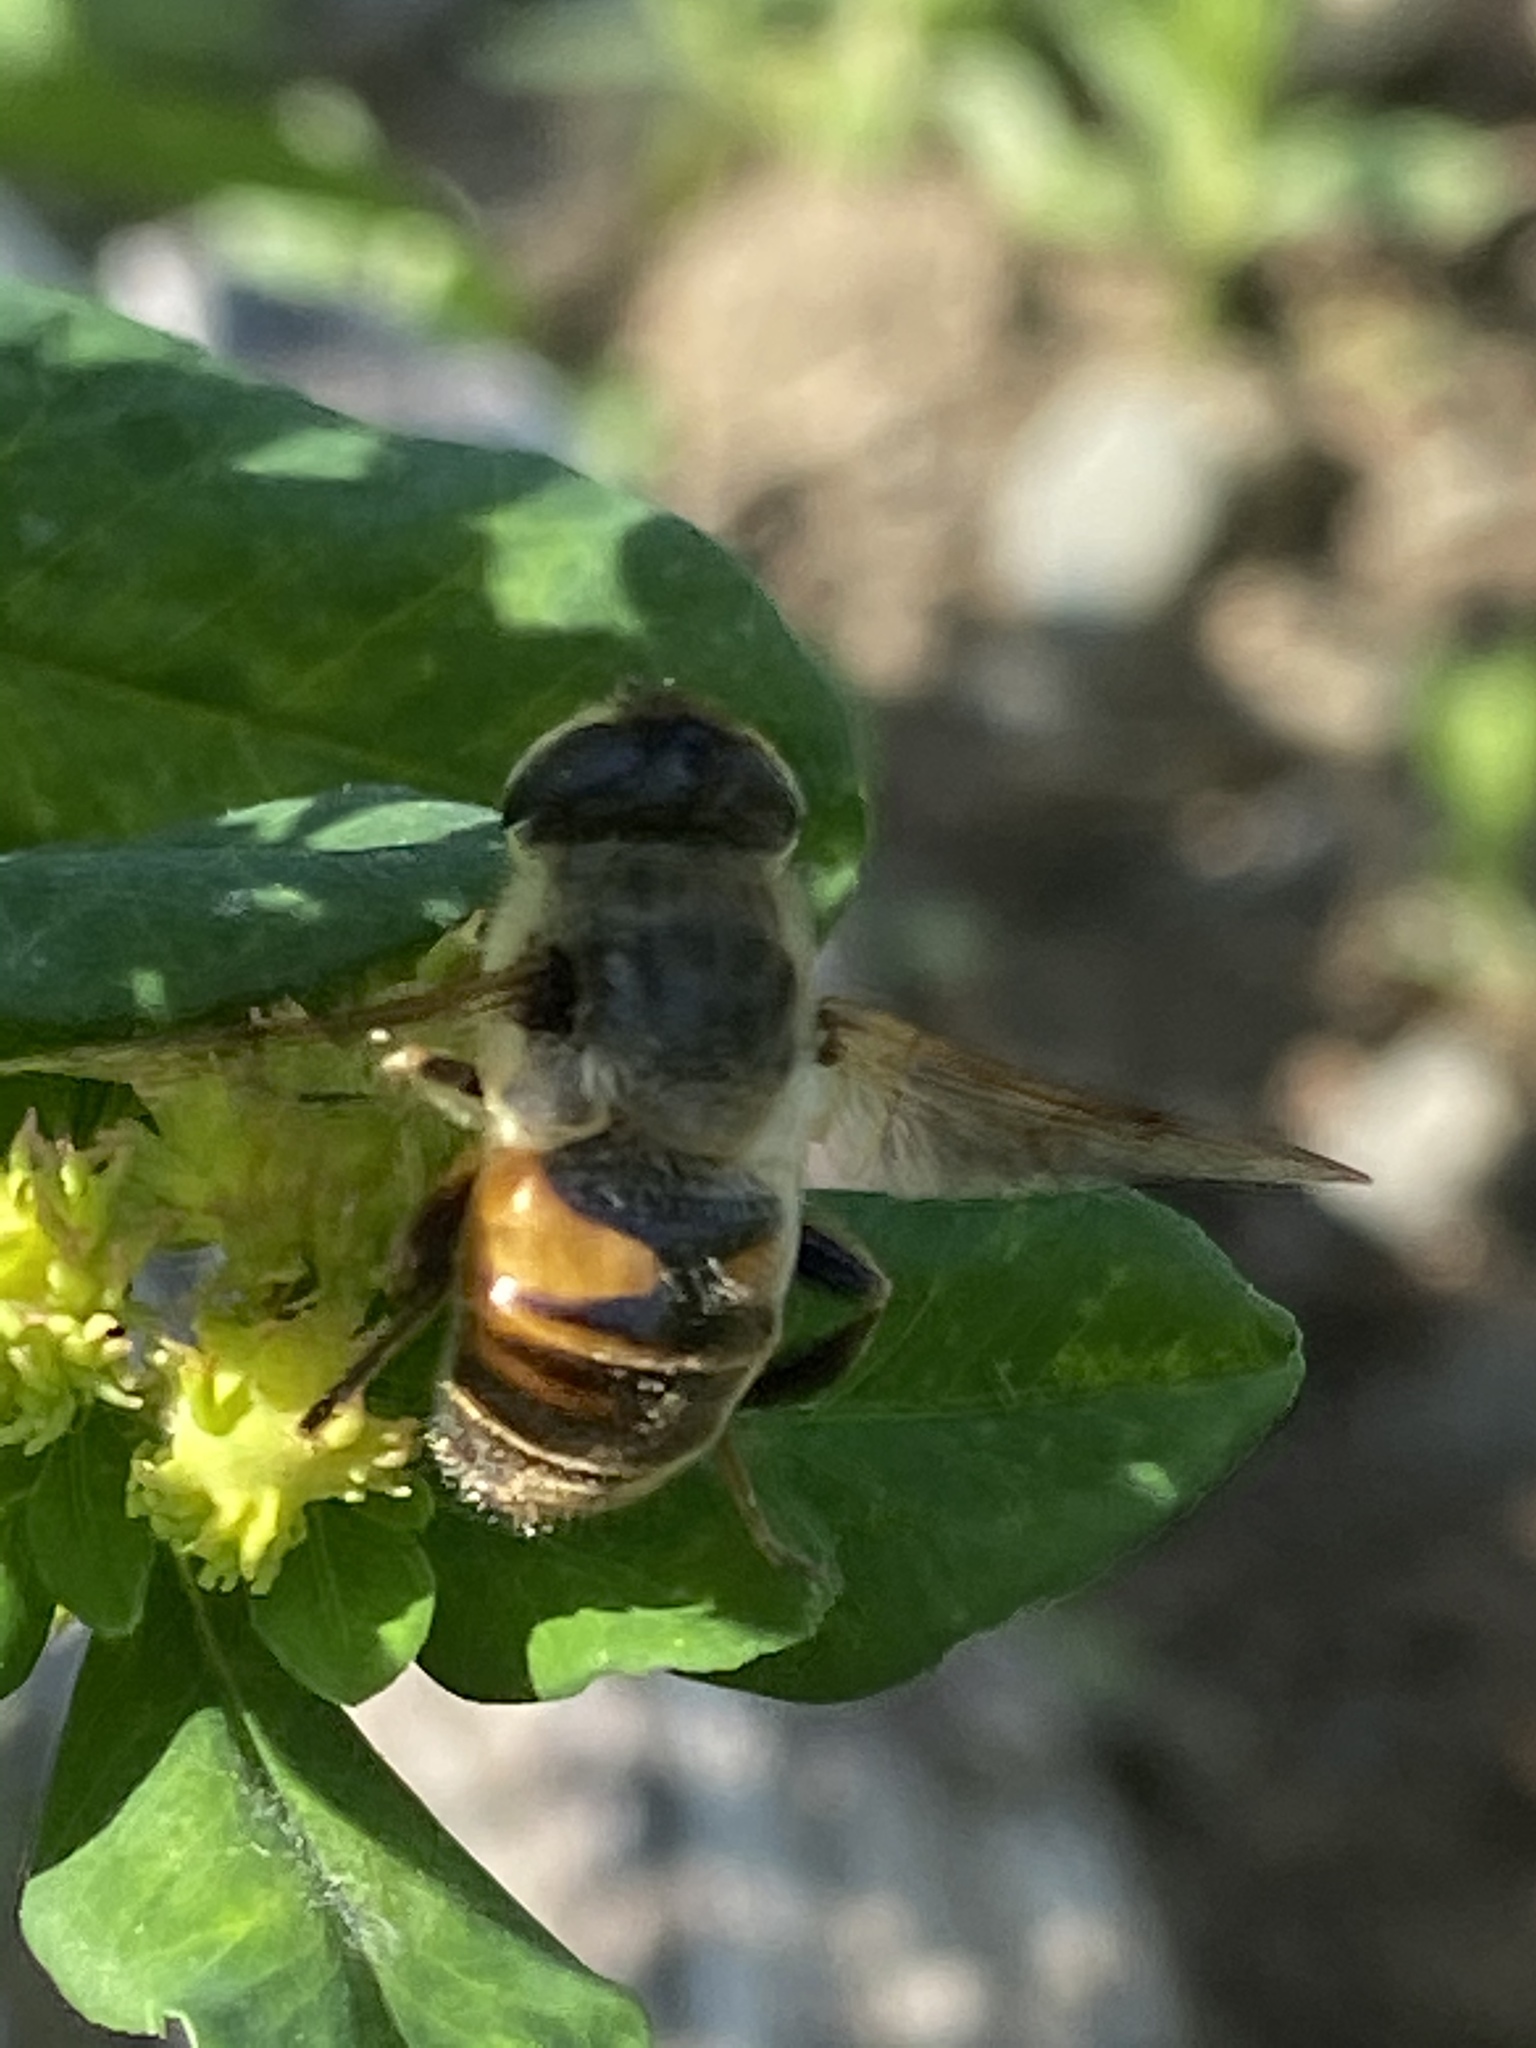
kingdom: Animalia
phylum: Arthropoda
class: Insecta
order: Diptera
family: Syrphidae
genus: Eristalis
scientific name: Eristalis tenax
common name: Drone fly
